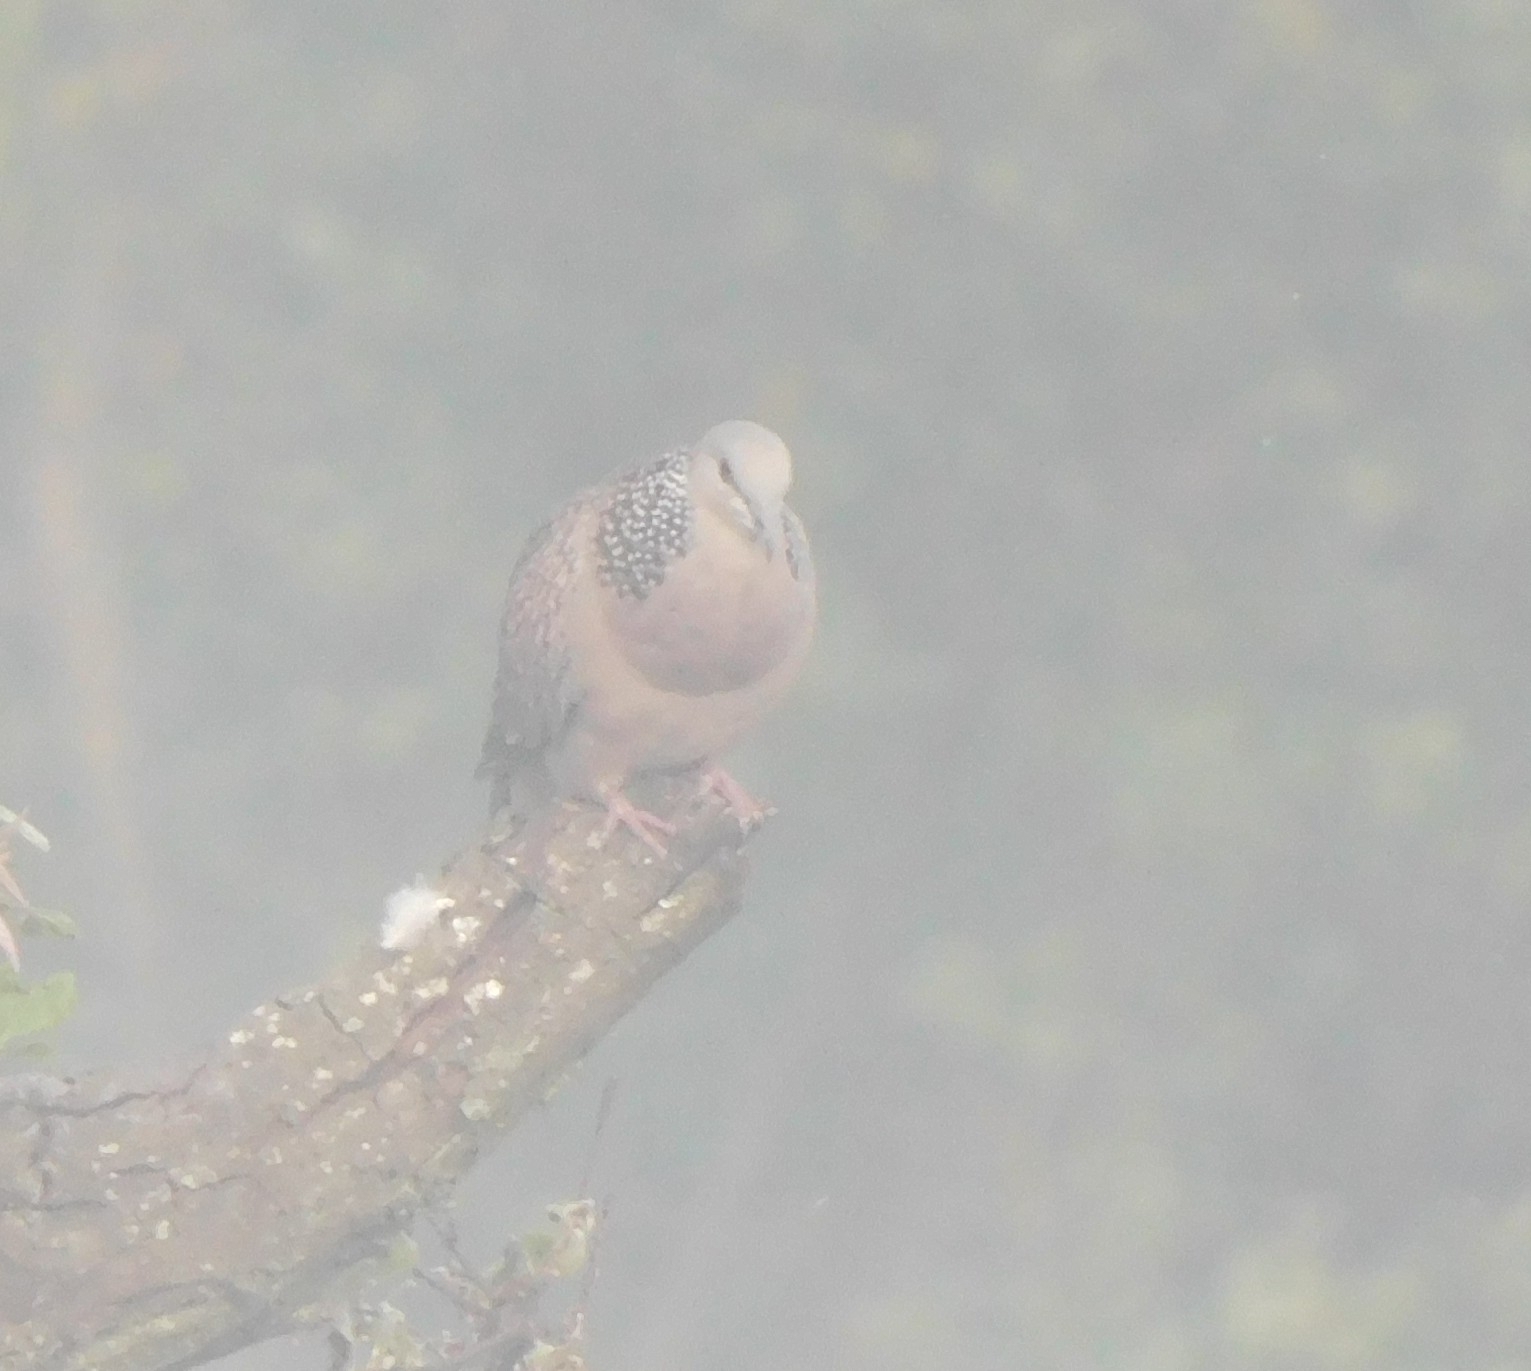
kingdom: Animalia
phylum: Chordata
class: Aves
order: Columbiformes
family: Columbidae
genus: Spilopelia
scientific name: Spilopelia chinensis
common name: Spotted dove
